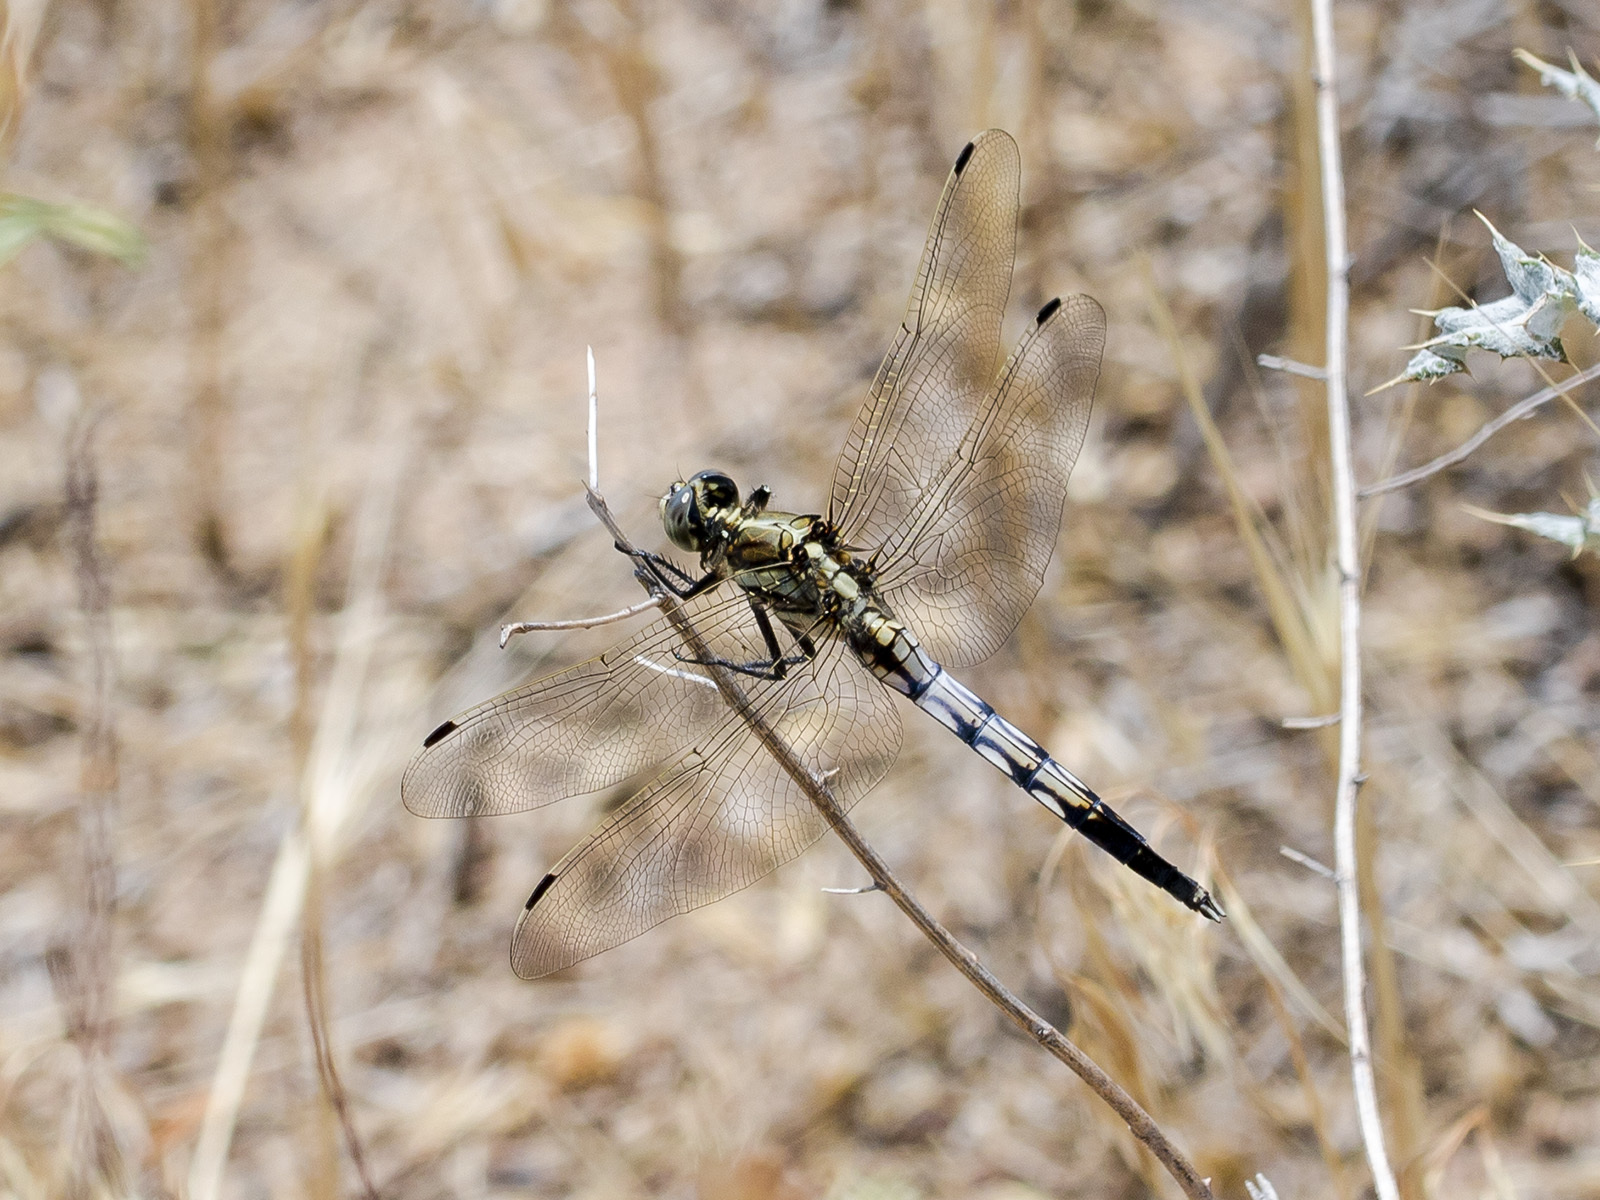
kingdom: Animalia
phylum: Arthropoda
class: Insecta
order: Odonata
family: Libellulidae
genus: Orthetrum
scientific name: Orthetrum albistylum
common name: White-tailed skimmer
